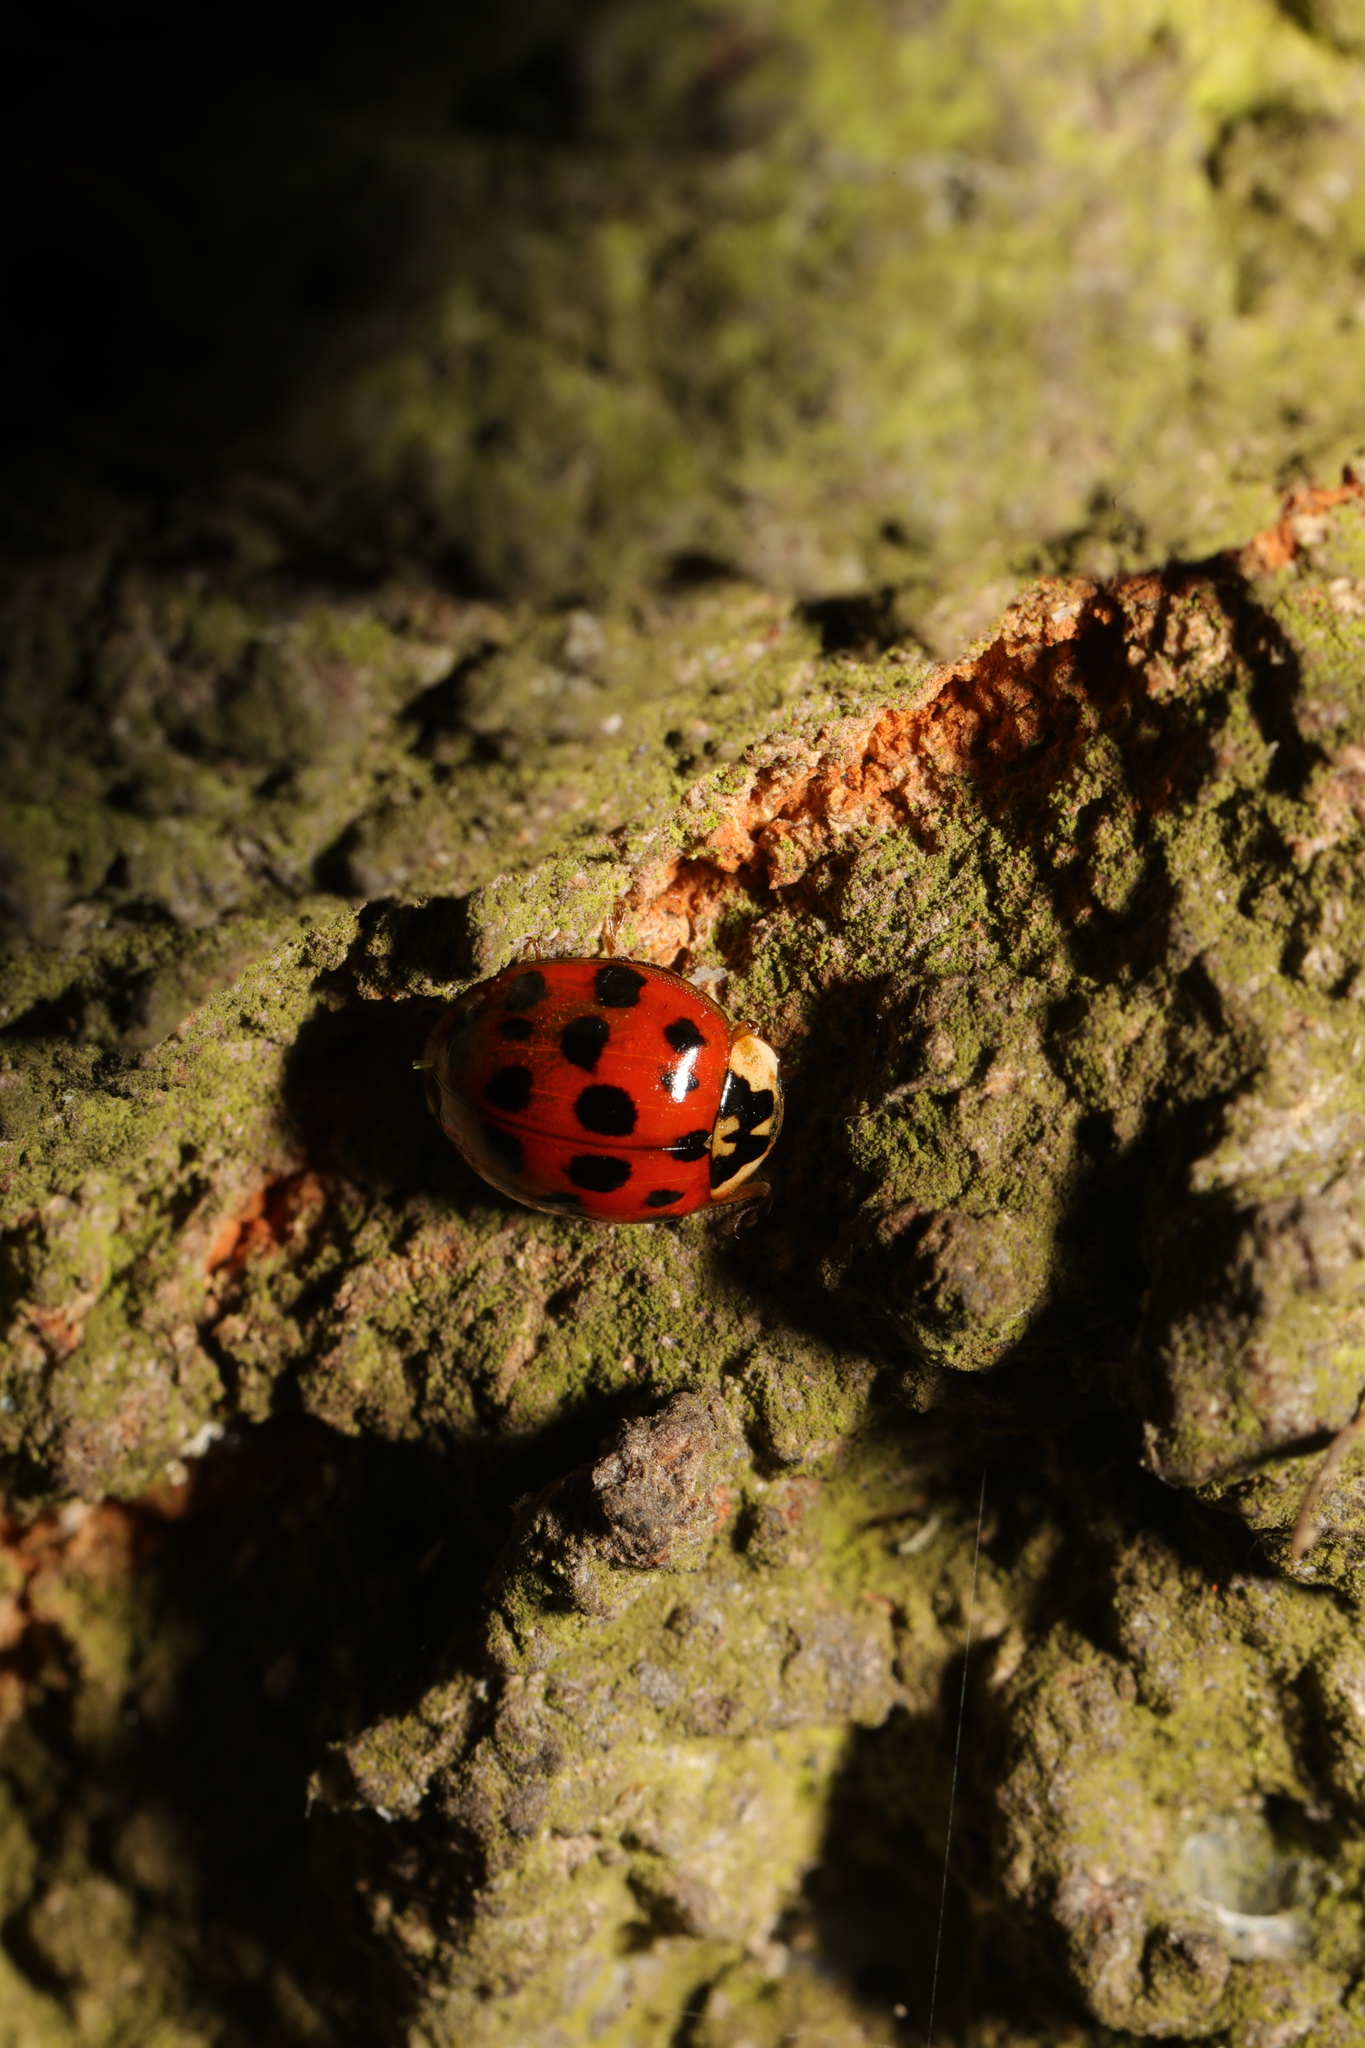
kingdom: Animalia
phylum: Arthropoda
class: Insecta
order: Coleoptera
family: Coccinellidae
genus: Harmonia
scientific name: Harmonia axyridis
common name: Harlequin ladybird
